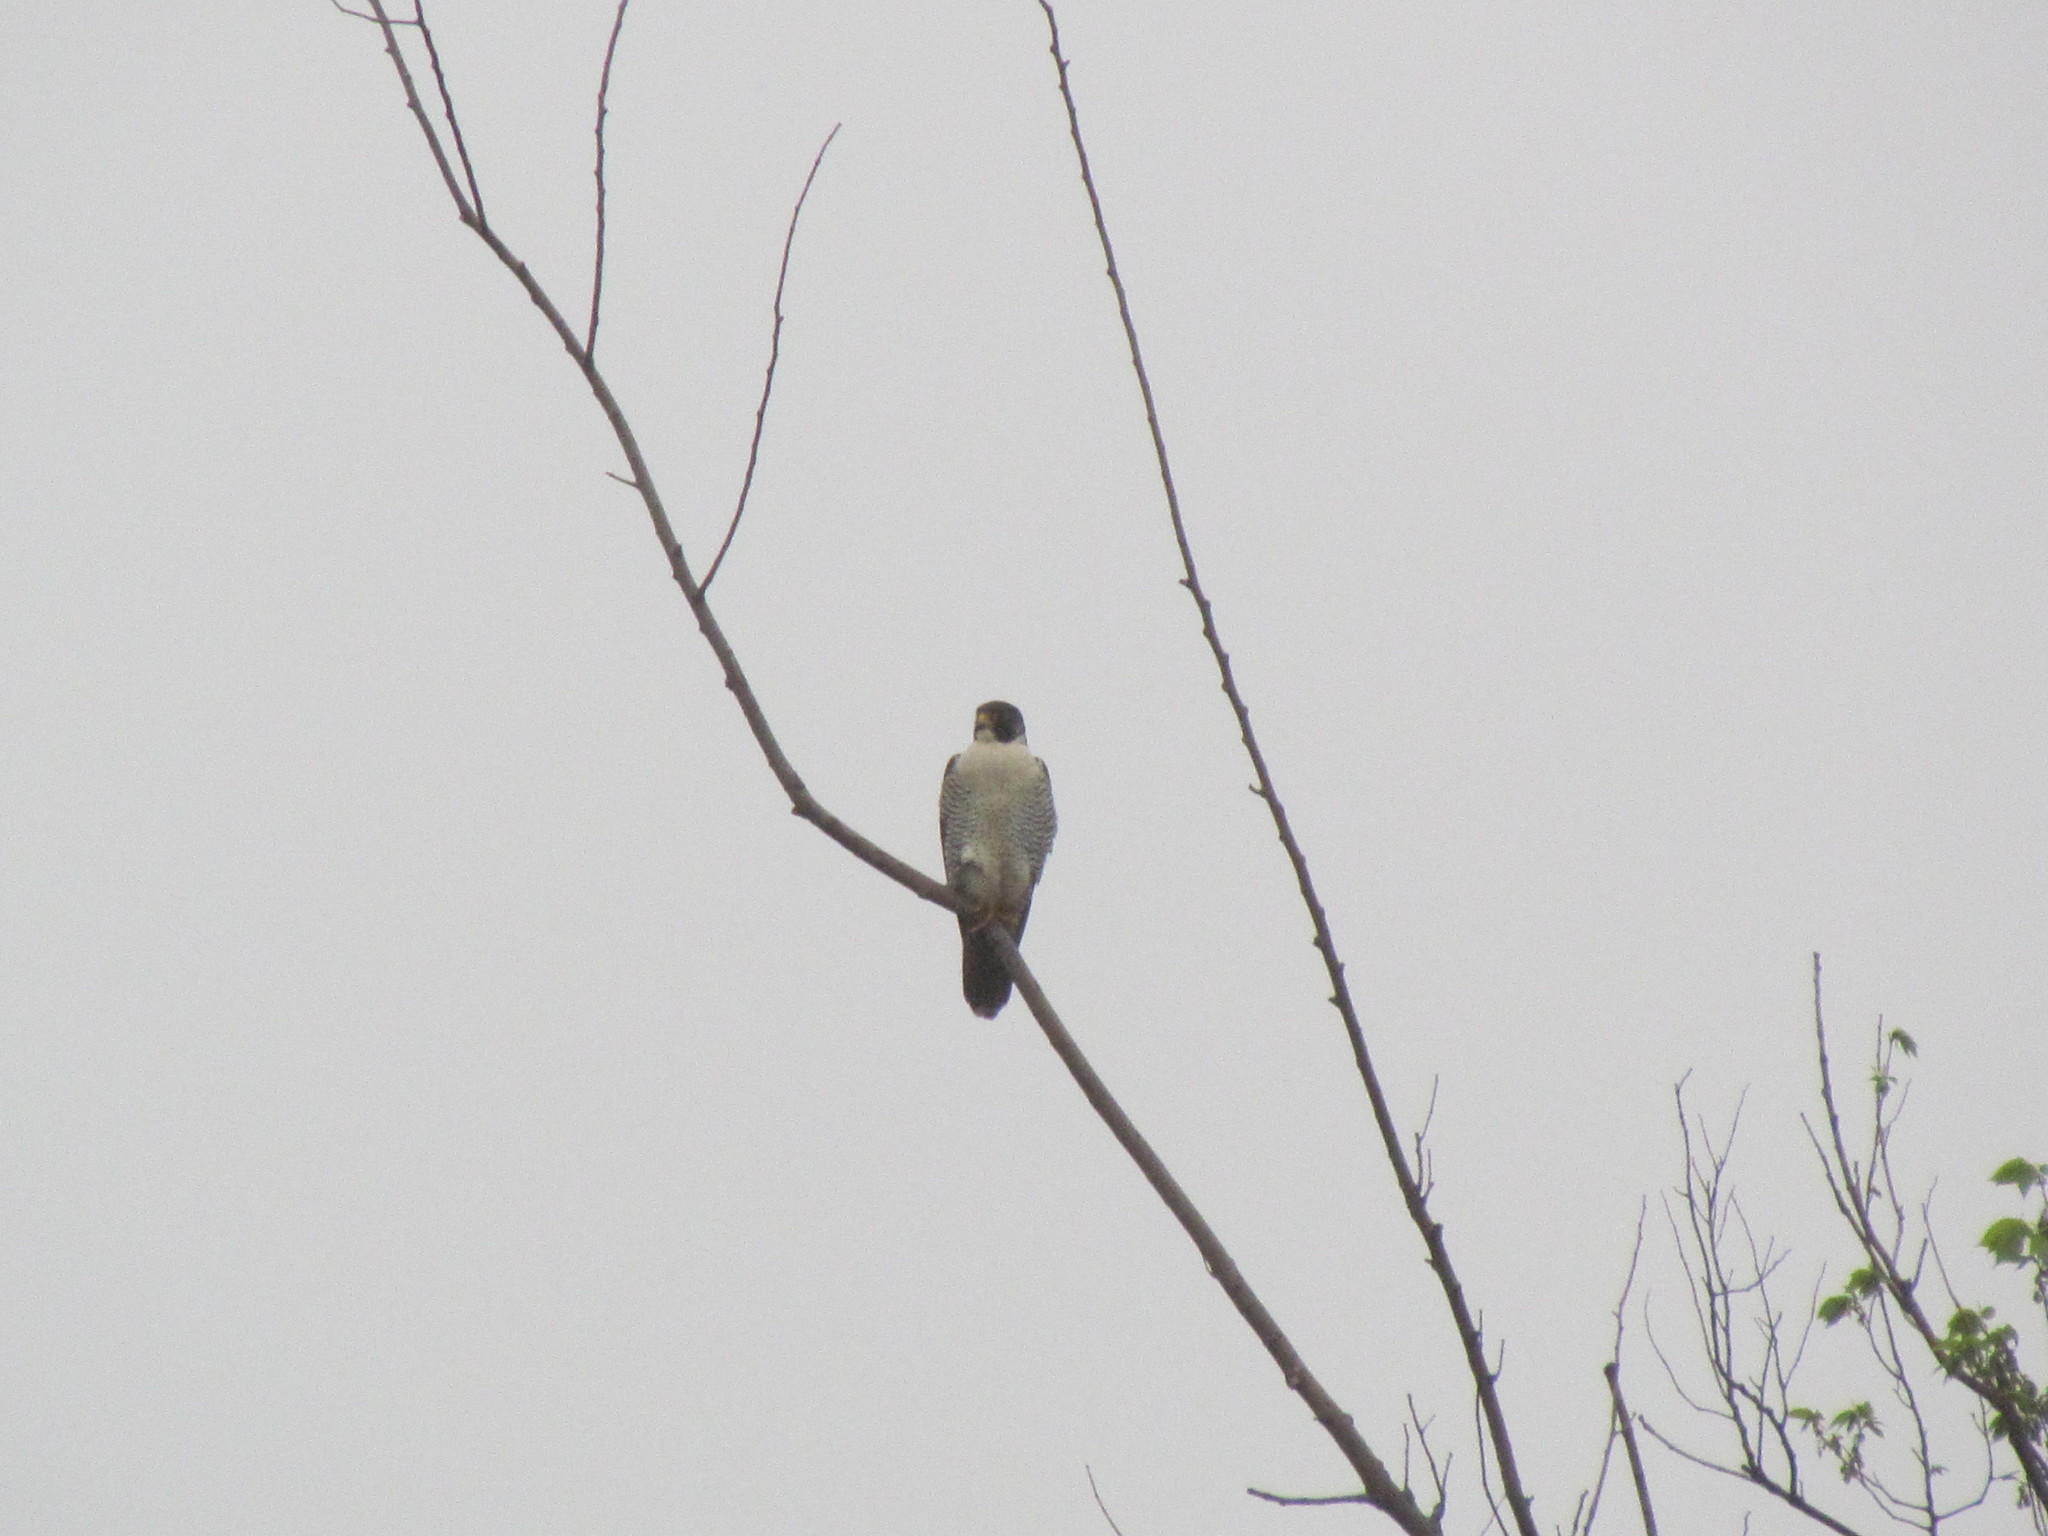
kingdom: Animalia
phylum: Chordata
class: Aves
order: Falconiformes
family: Falconidae
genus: Falco
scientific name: Falco peregrinus
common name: Peregrine falcon
